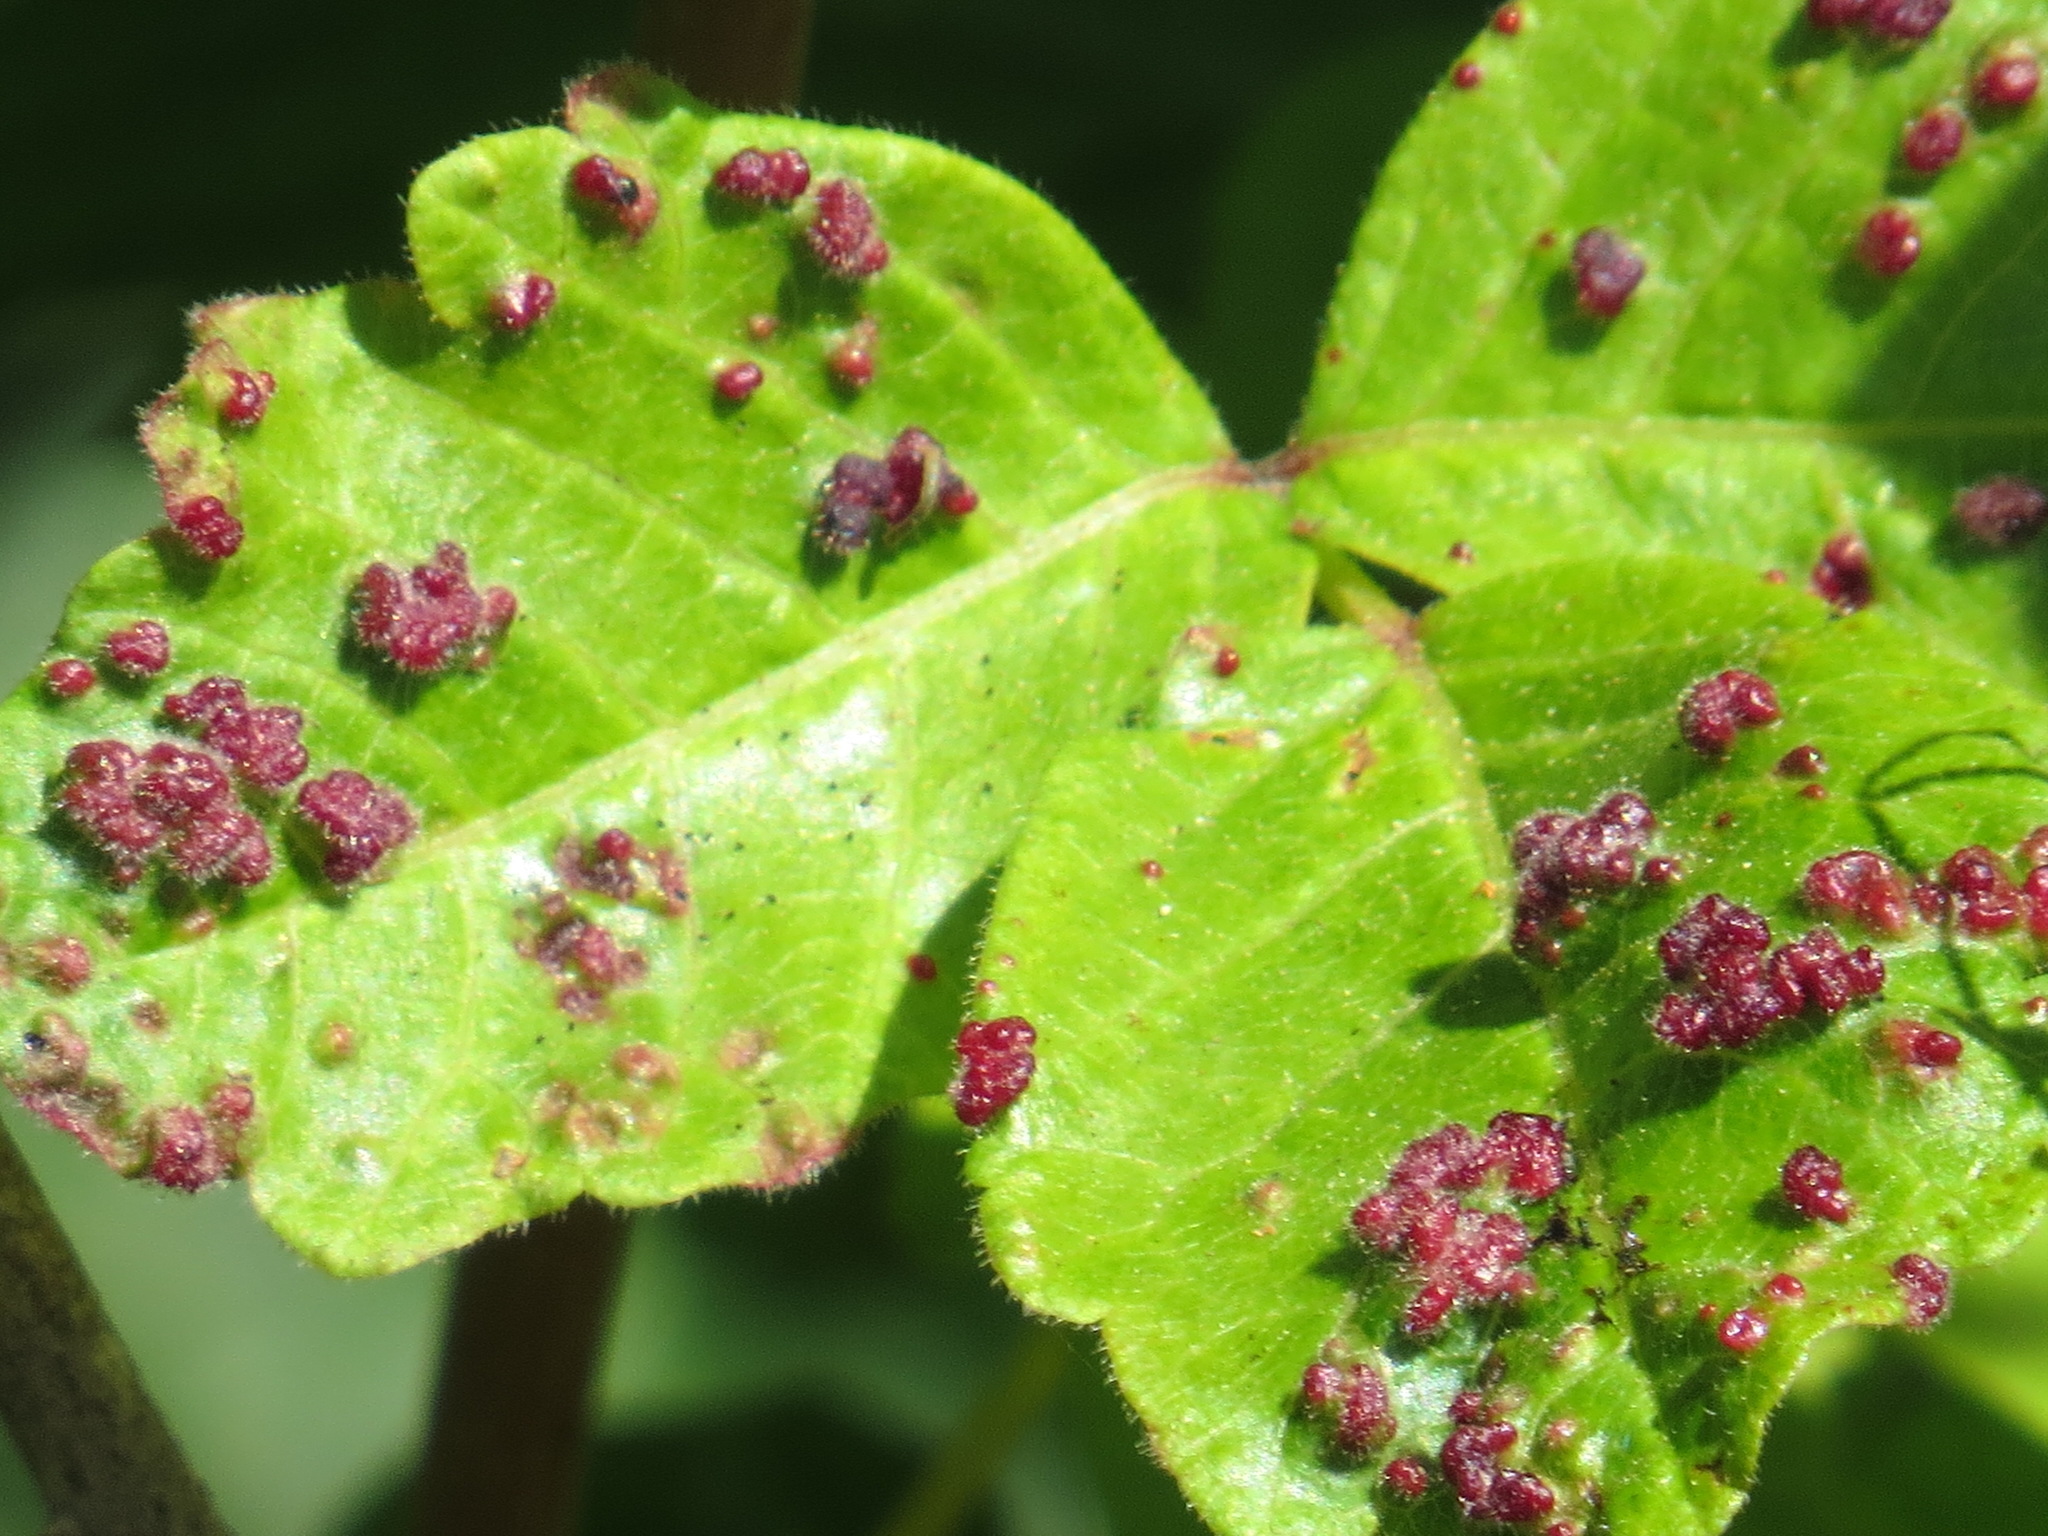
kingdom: Animalia
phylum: Arthropoda
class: Arachnida
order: Trombidiformes
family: Eriophyidae
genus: Aculops
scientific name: Aculops
